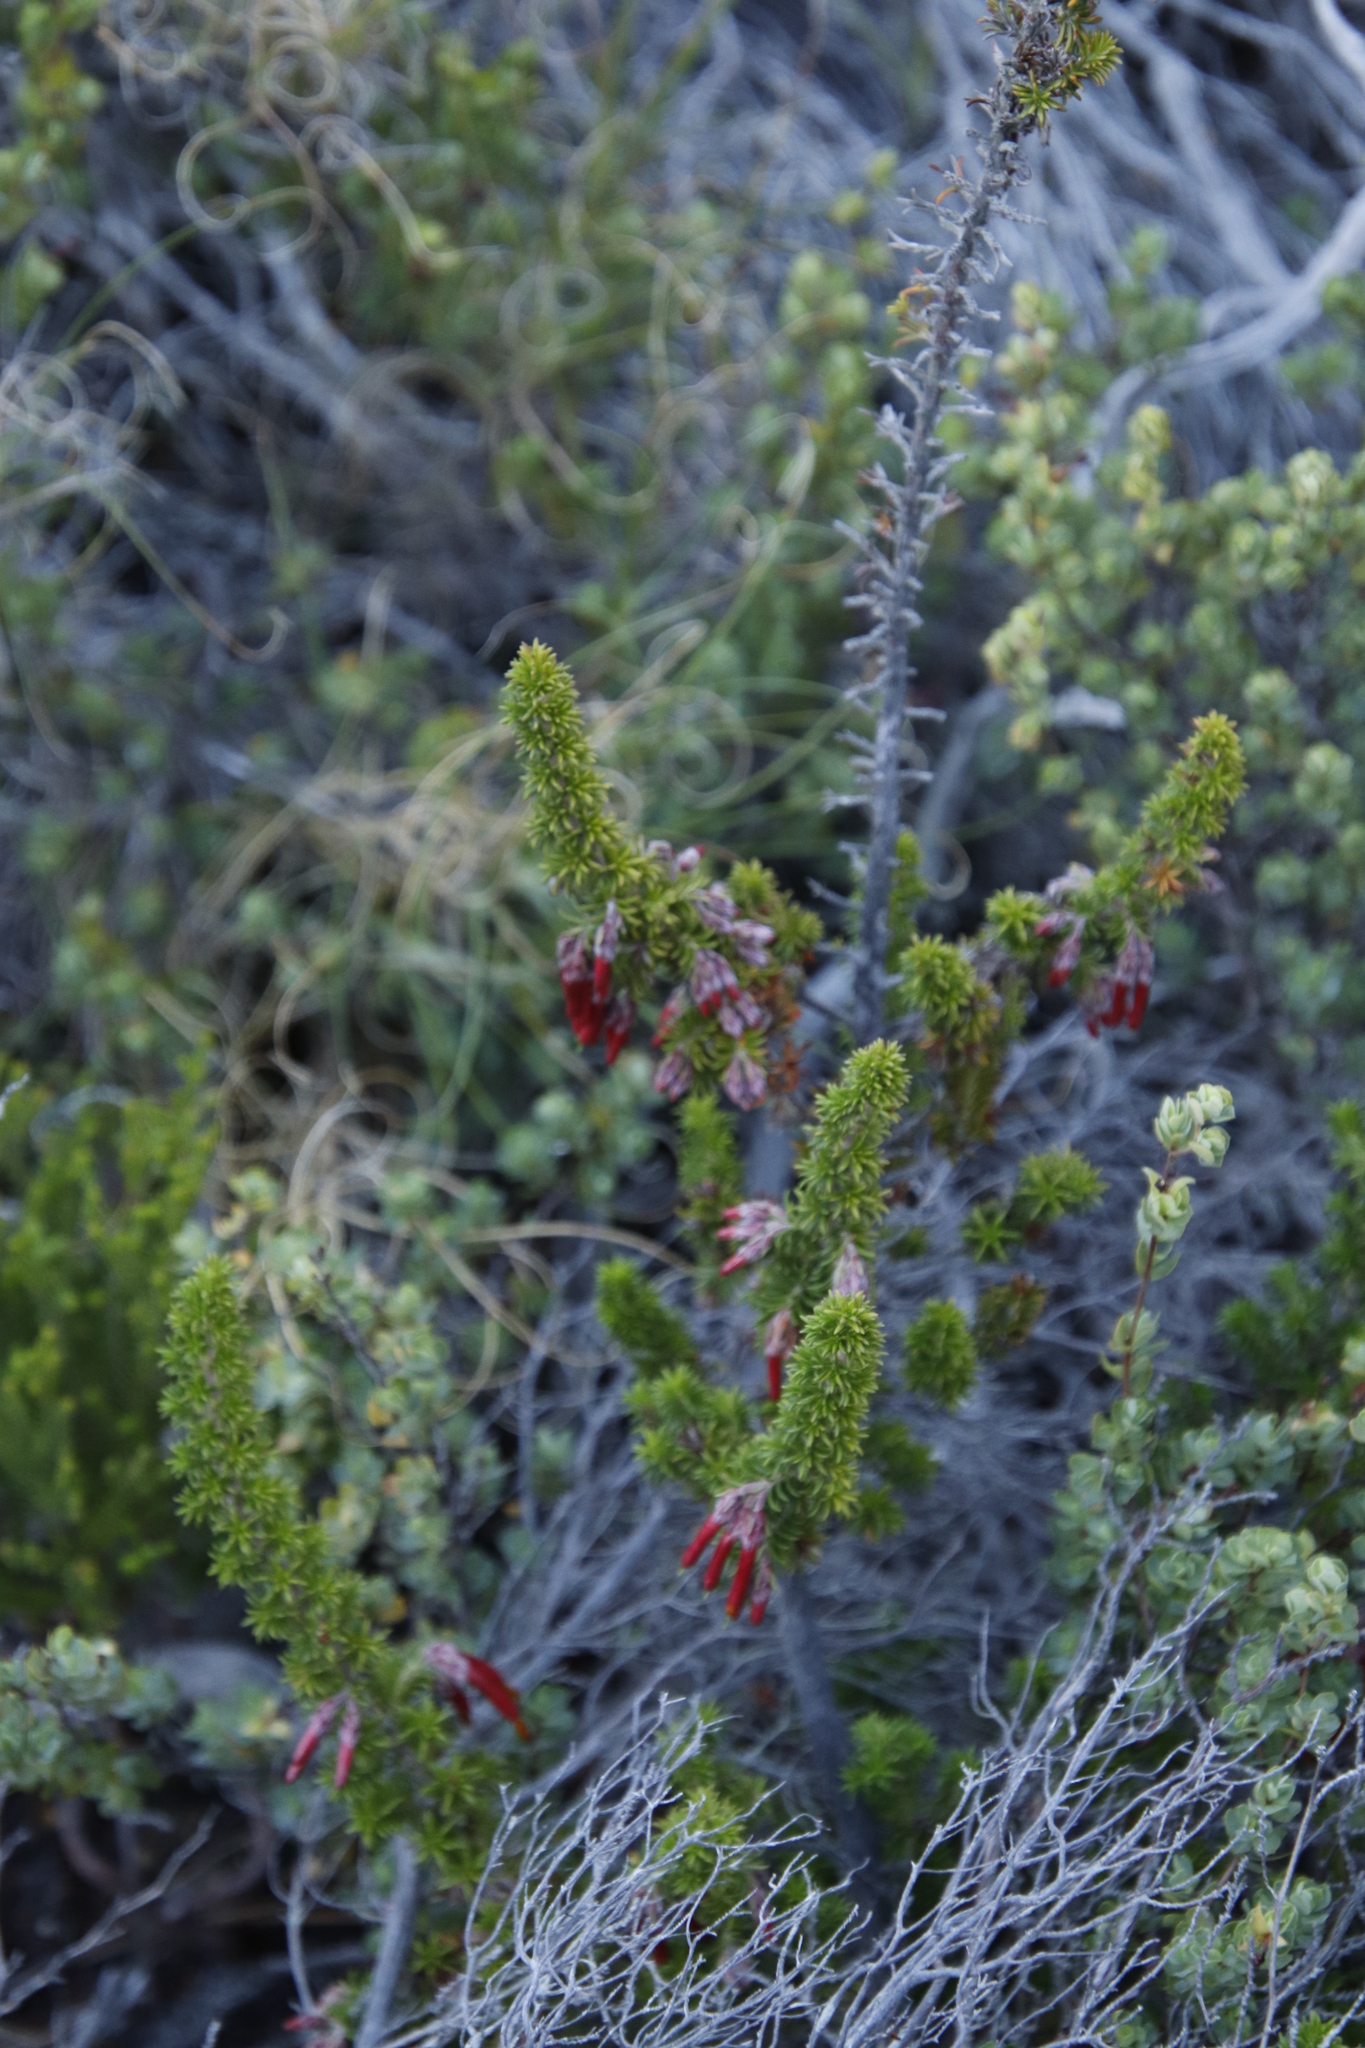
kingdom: Plantae
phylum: Tracheophyta
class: Magnoliopsida
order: Ericales
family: Ericaceae
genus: Erica
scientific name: Erica coccinea
